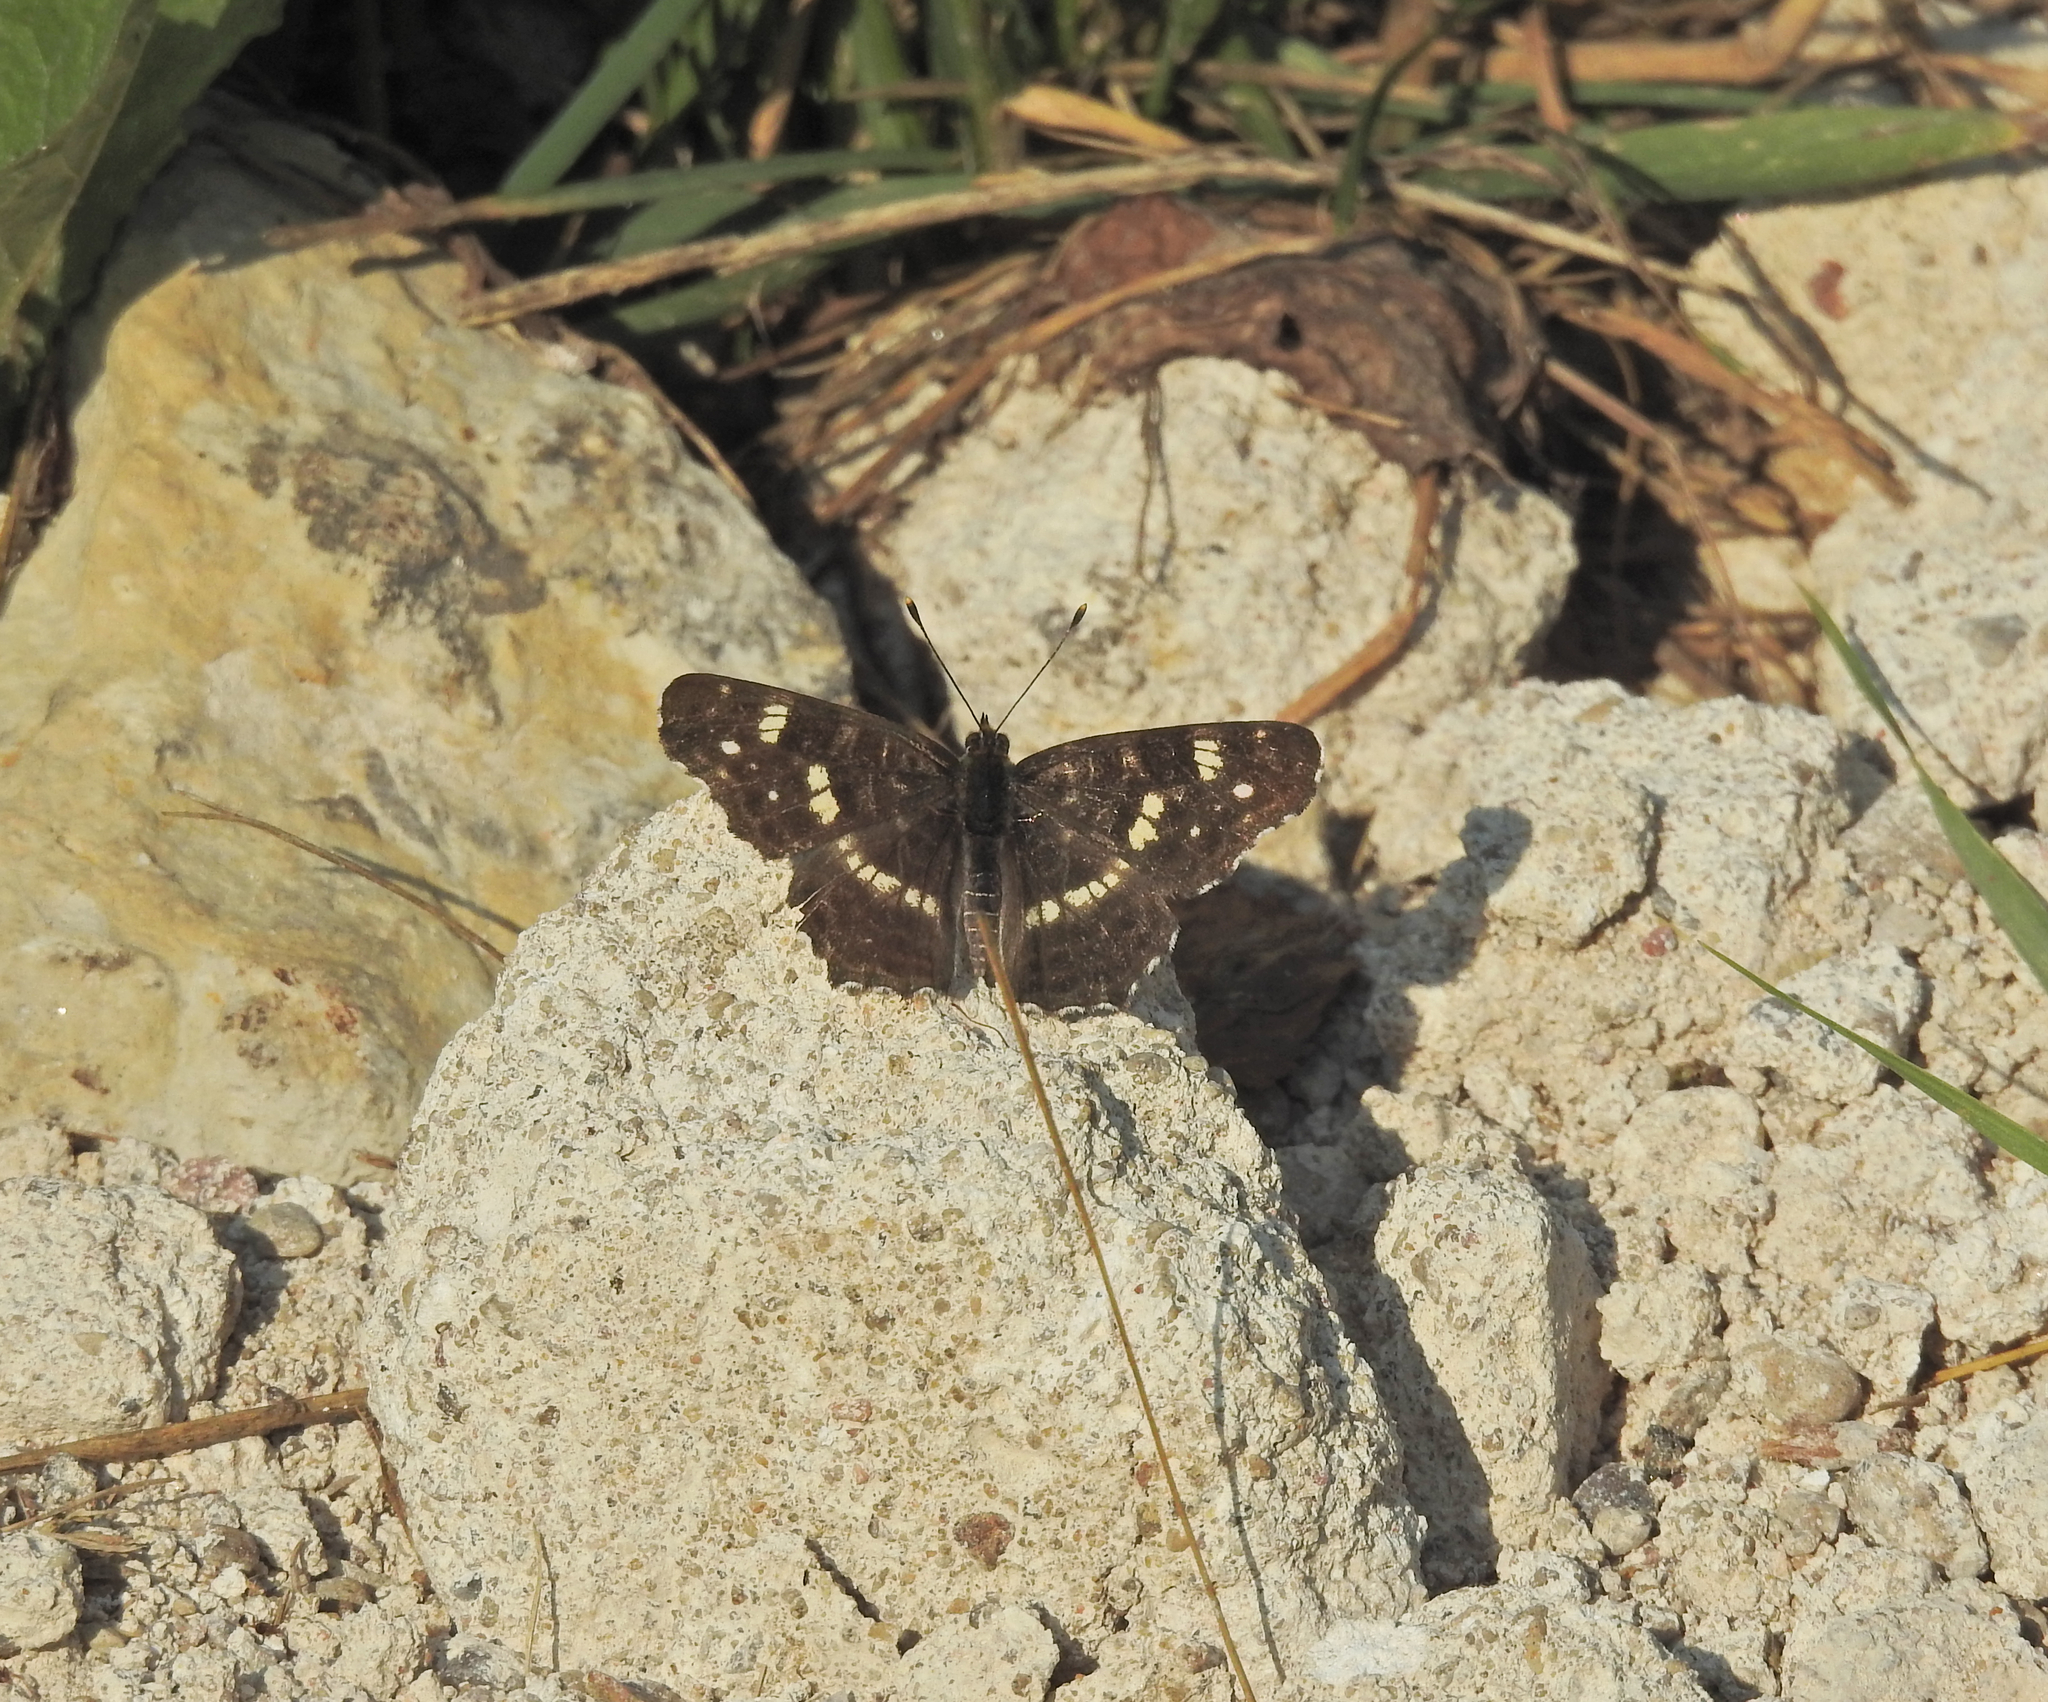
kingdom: Animalia
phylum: Arthropoda
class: Insecta
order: Lepidoptera
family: Nymphalidae
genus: Araschnia
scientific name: Araschnia levana
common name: Map butterfly
